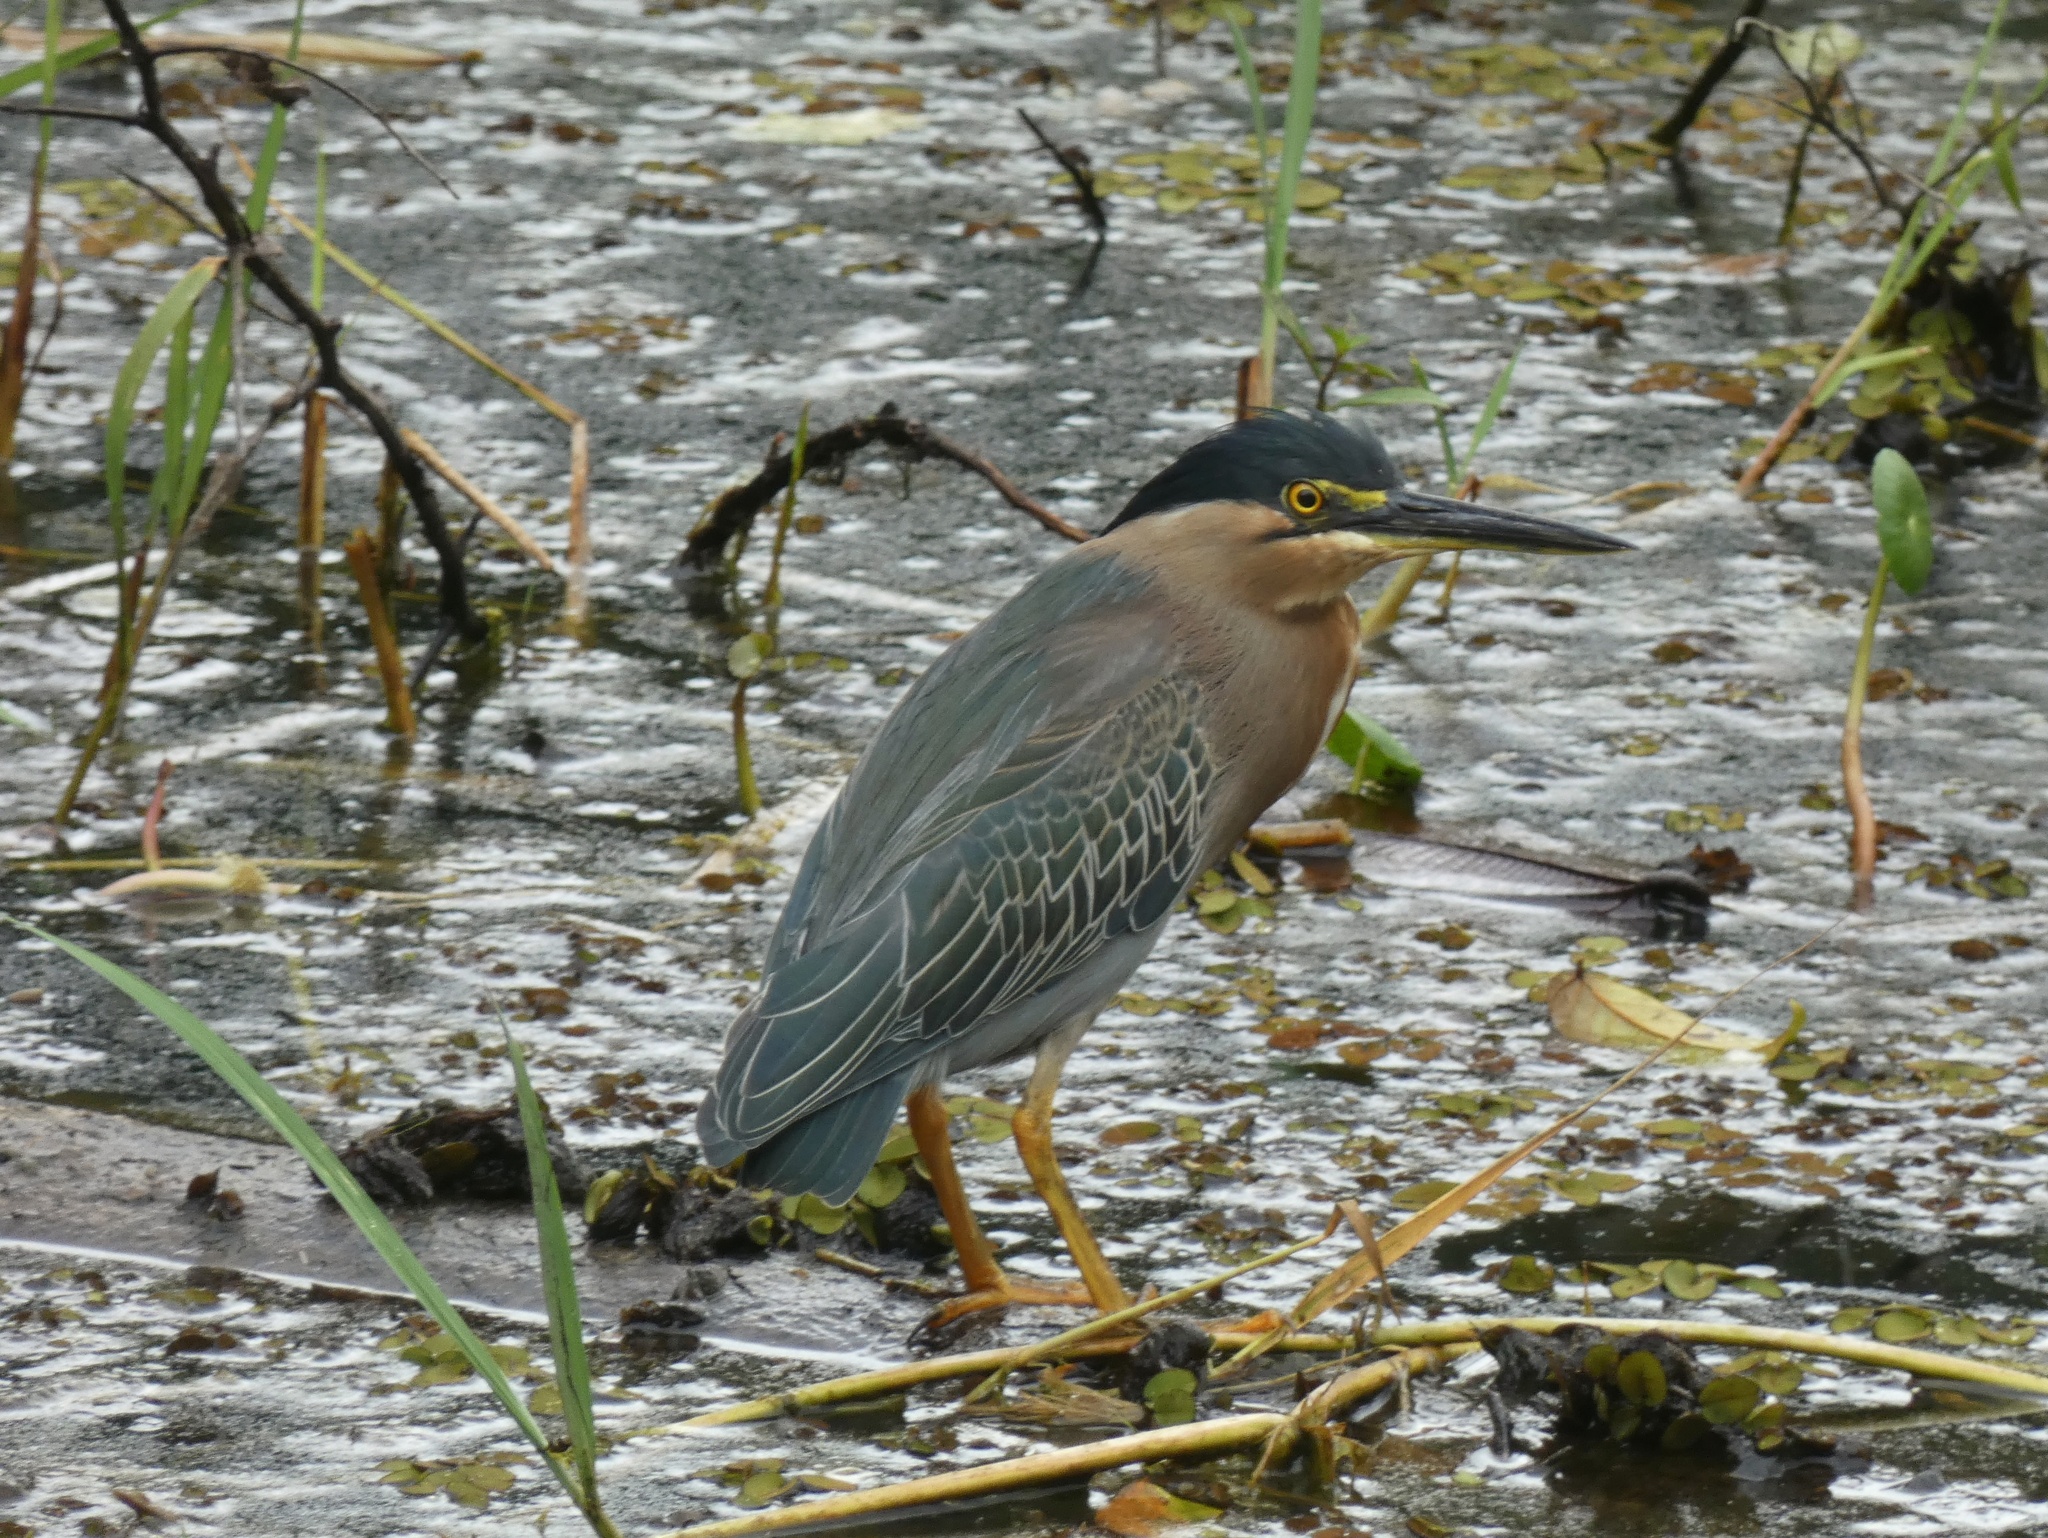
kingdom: Animalia
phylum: Chordata
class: Aves
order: Pelecaniformes
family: Ardeidae
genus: Butorides
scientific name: Butorides striata
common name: Striated heron
